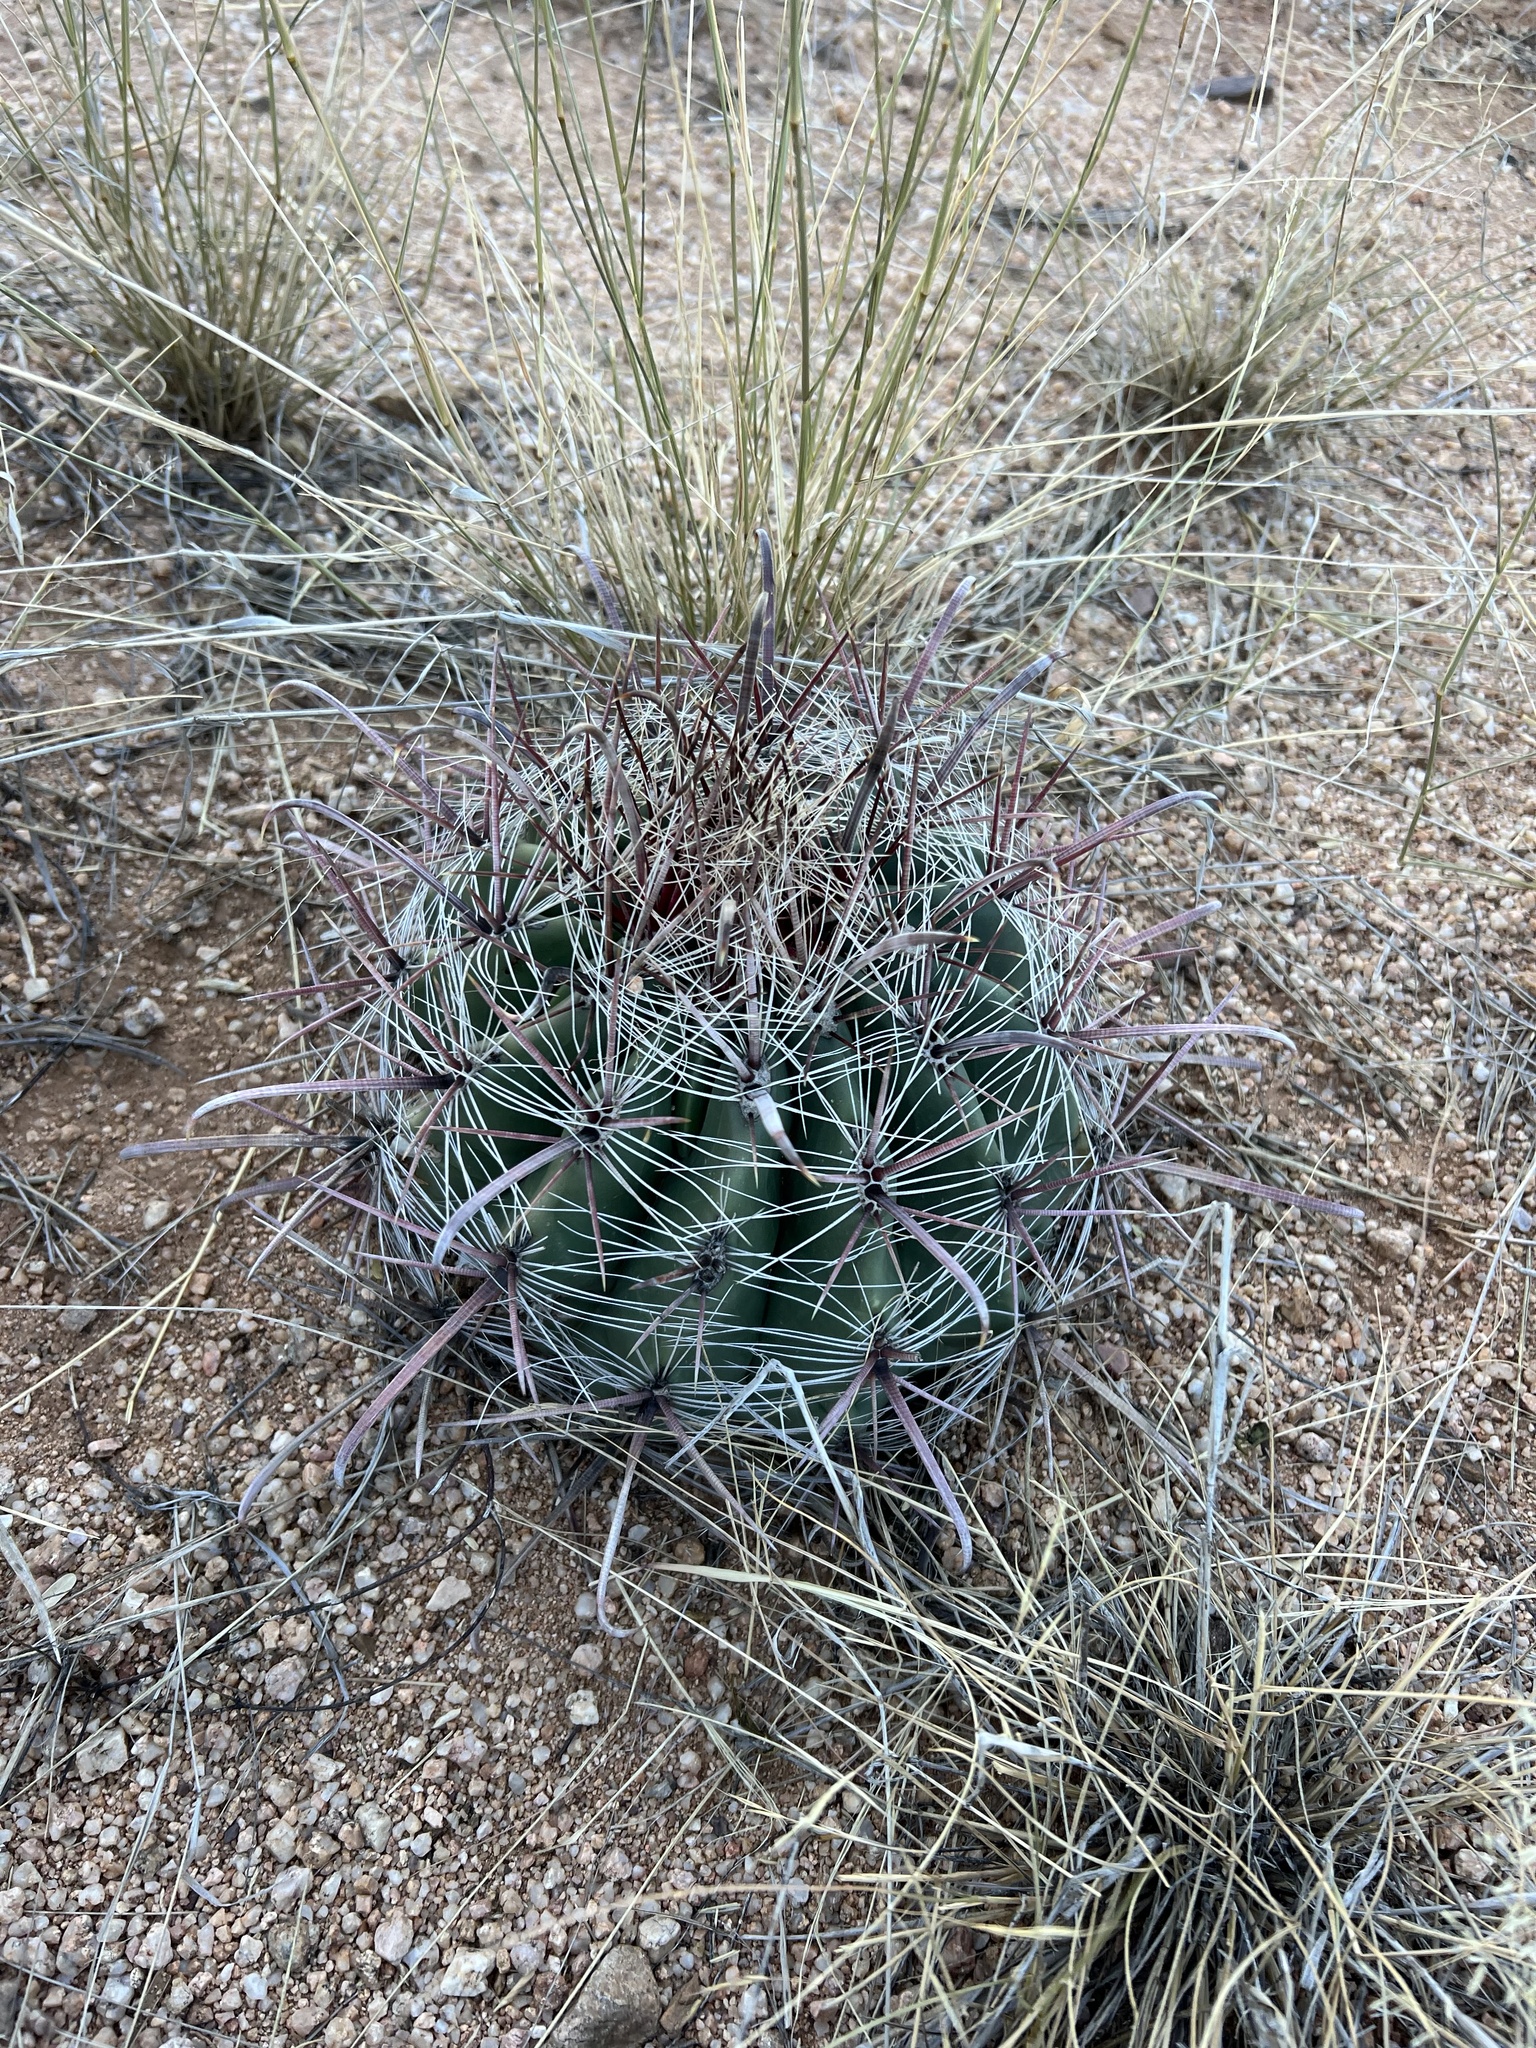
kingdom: Plantae
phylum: Tracheophyta
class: Magnoliopsida
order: Caryophyllales
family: Cactaceae
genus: Ferocactus
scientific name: Ferocactus wislizeni
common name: Candy barrel cactus
